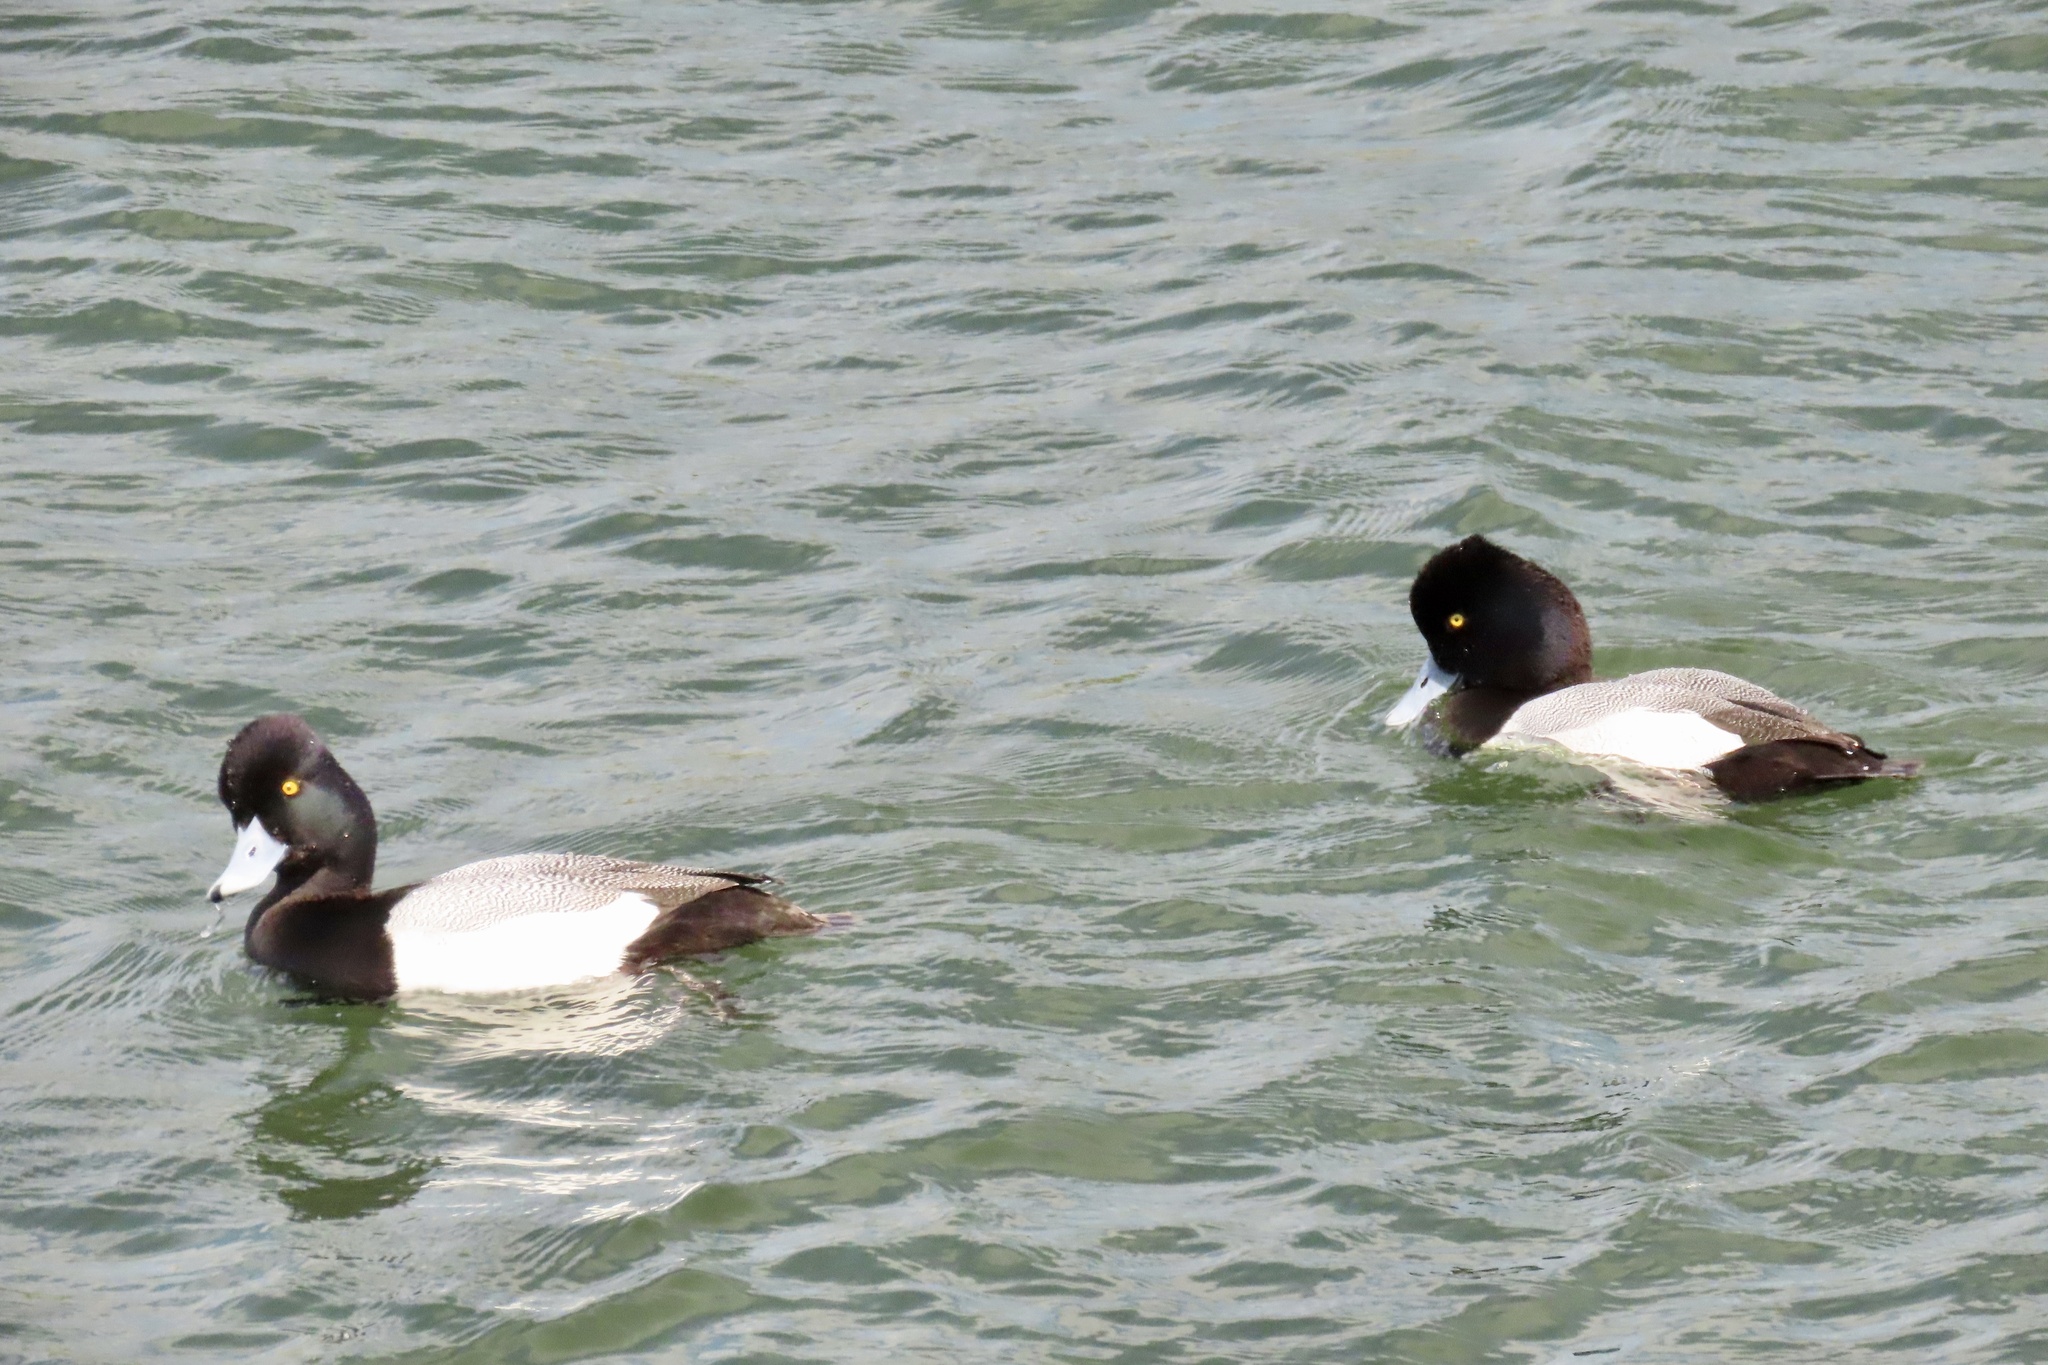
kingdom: Animalia
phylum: Chordata
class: Aves
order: Anseriformes
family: Anatidae
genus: Aythya
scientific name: Aythya affinis
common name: Lesser scaup
